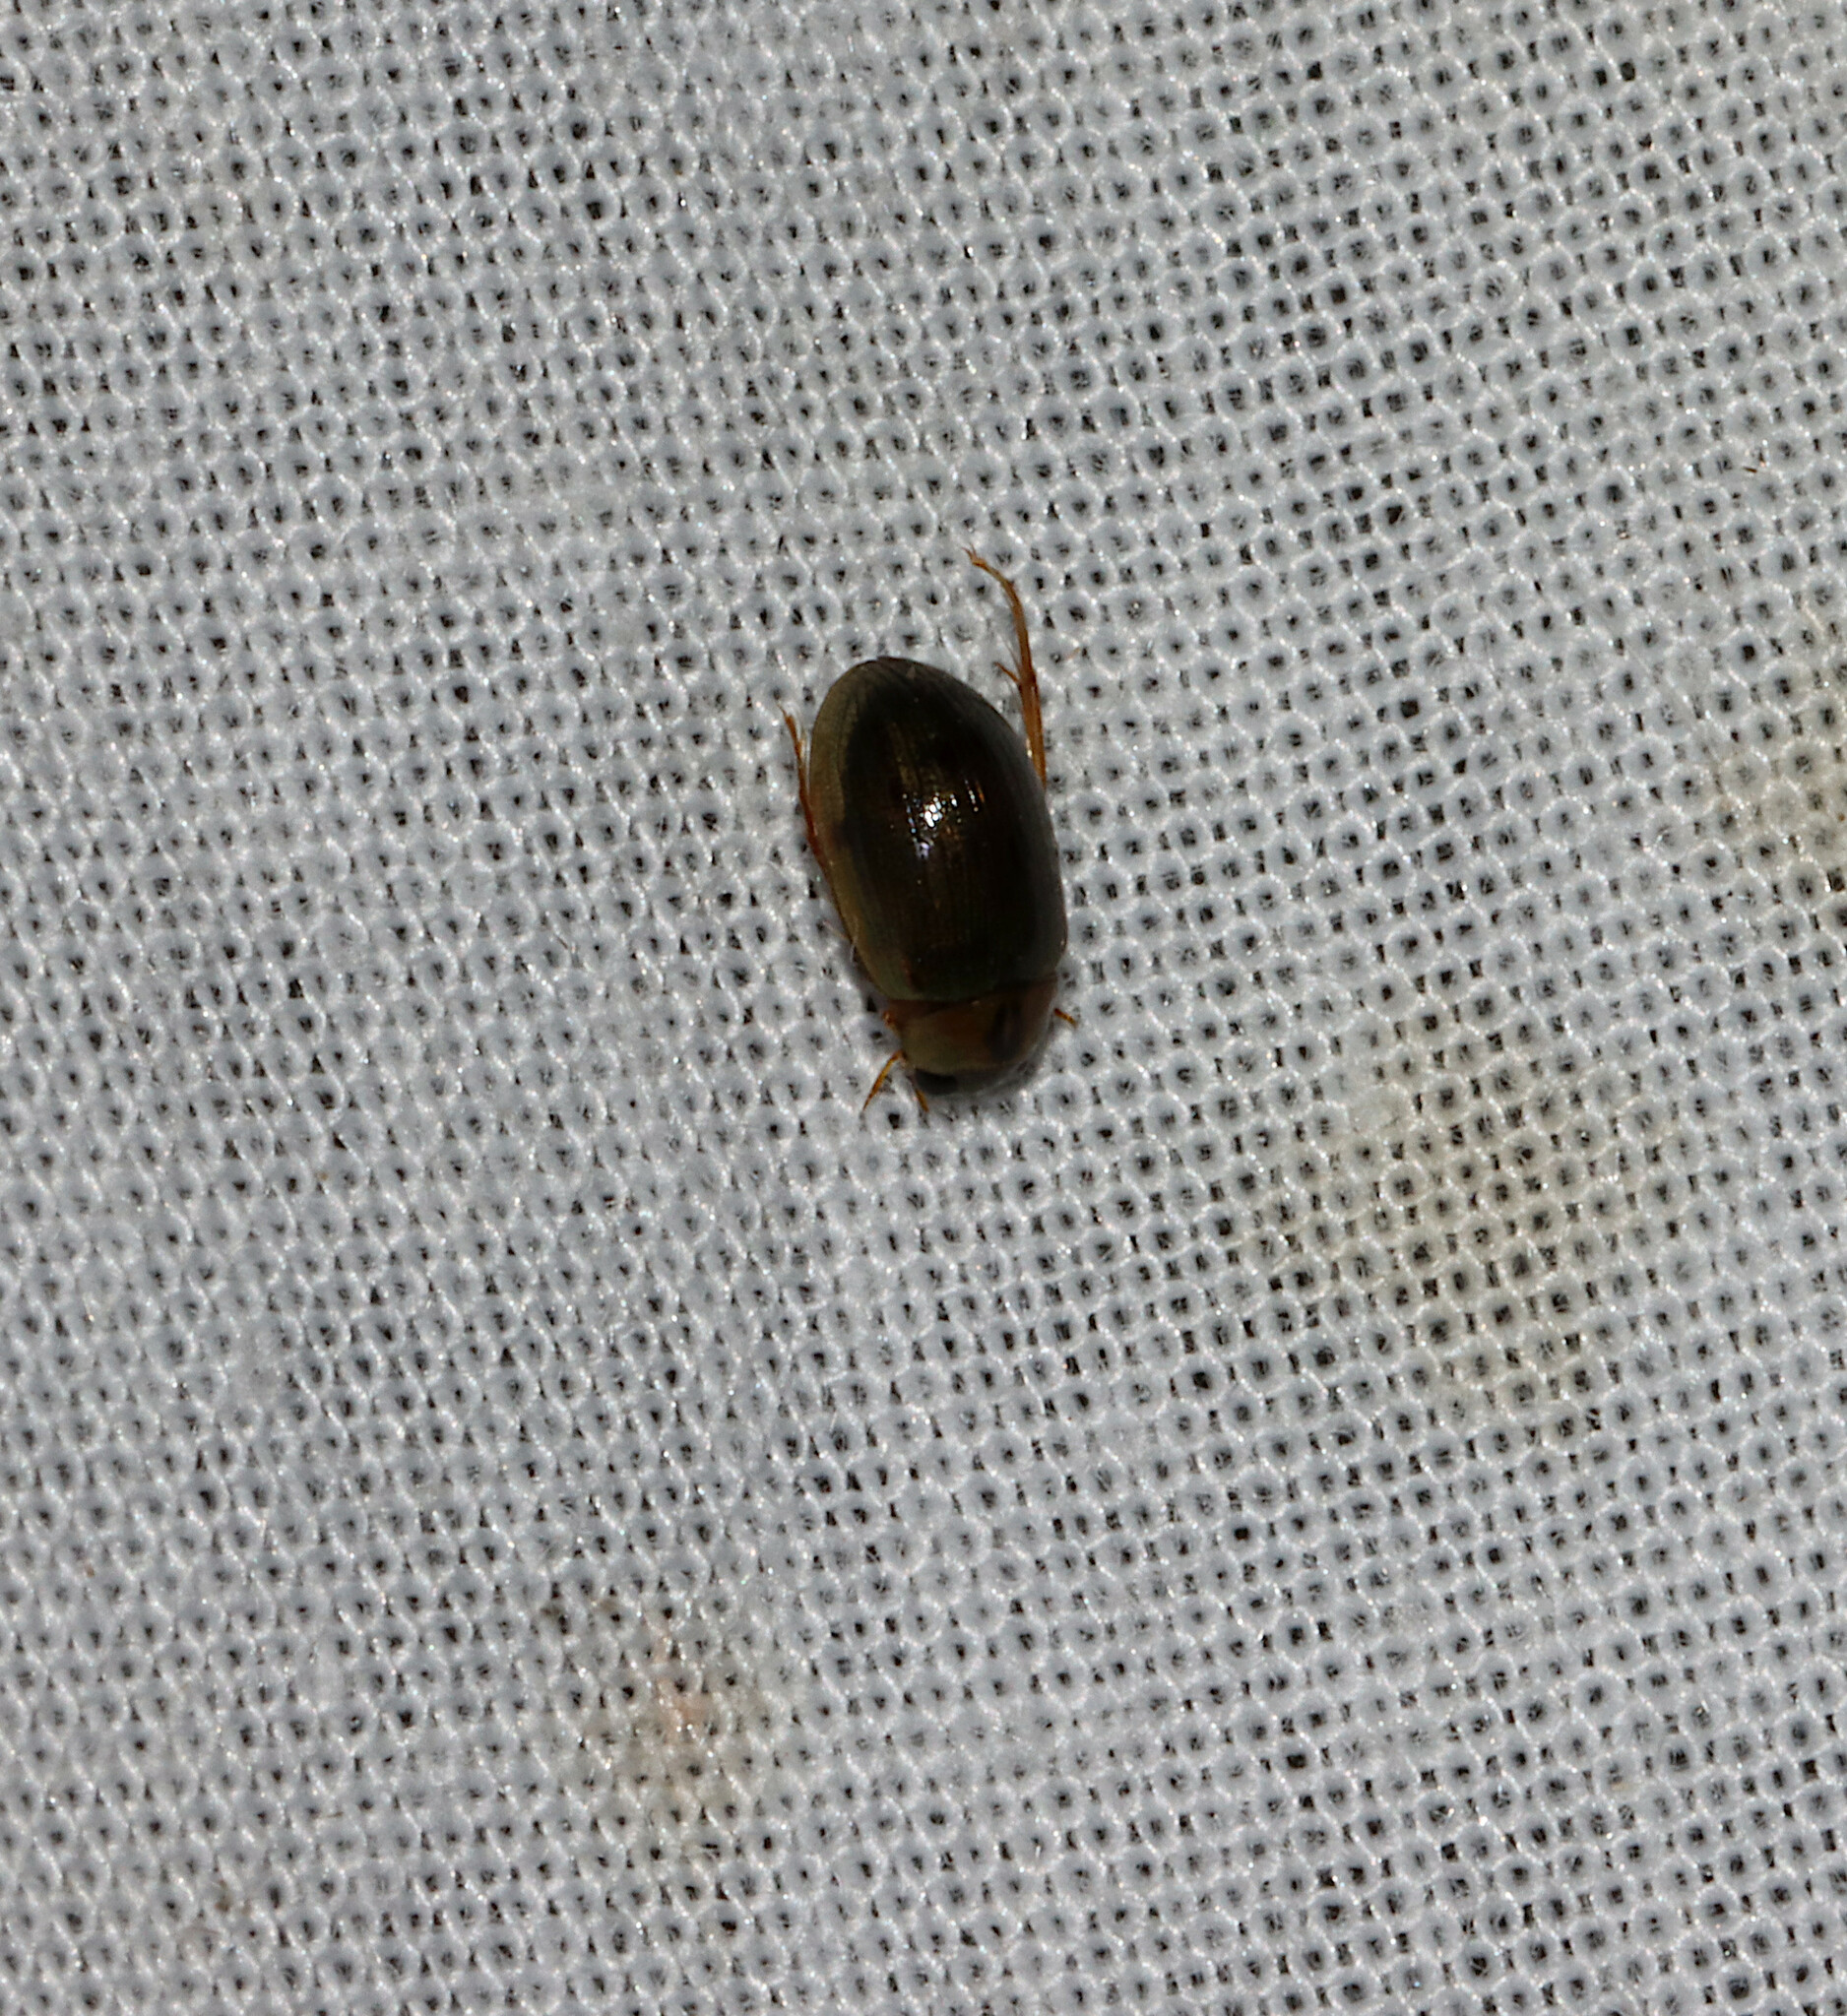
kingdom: Animalia
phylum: Arthropoda
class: Insecta
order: Coleoptera
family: Hydrophilidae
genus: Berosus
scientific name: Berosus
